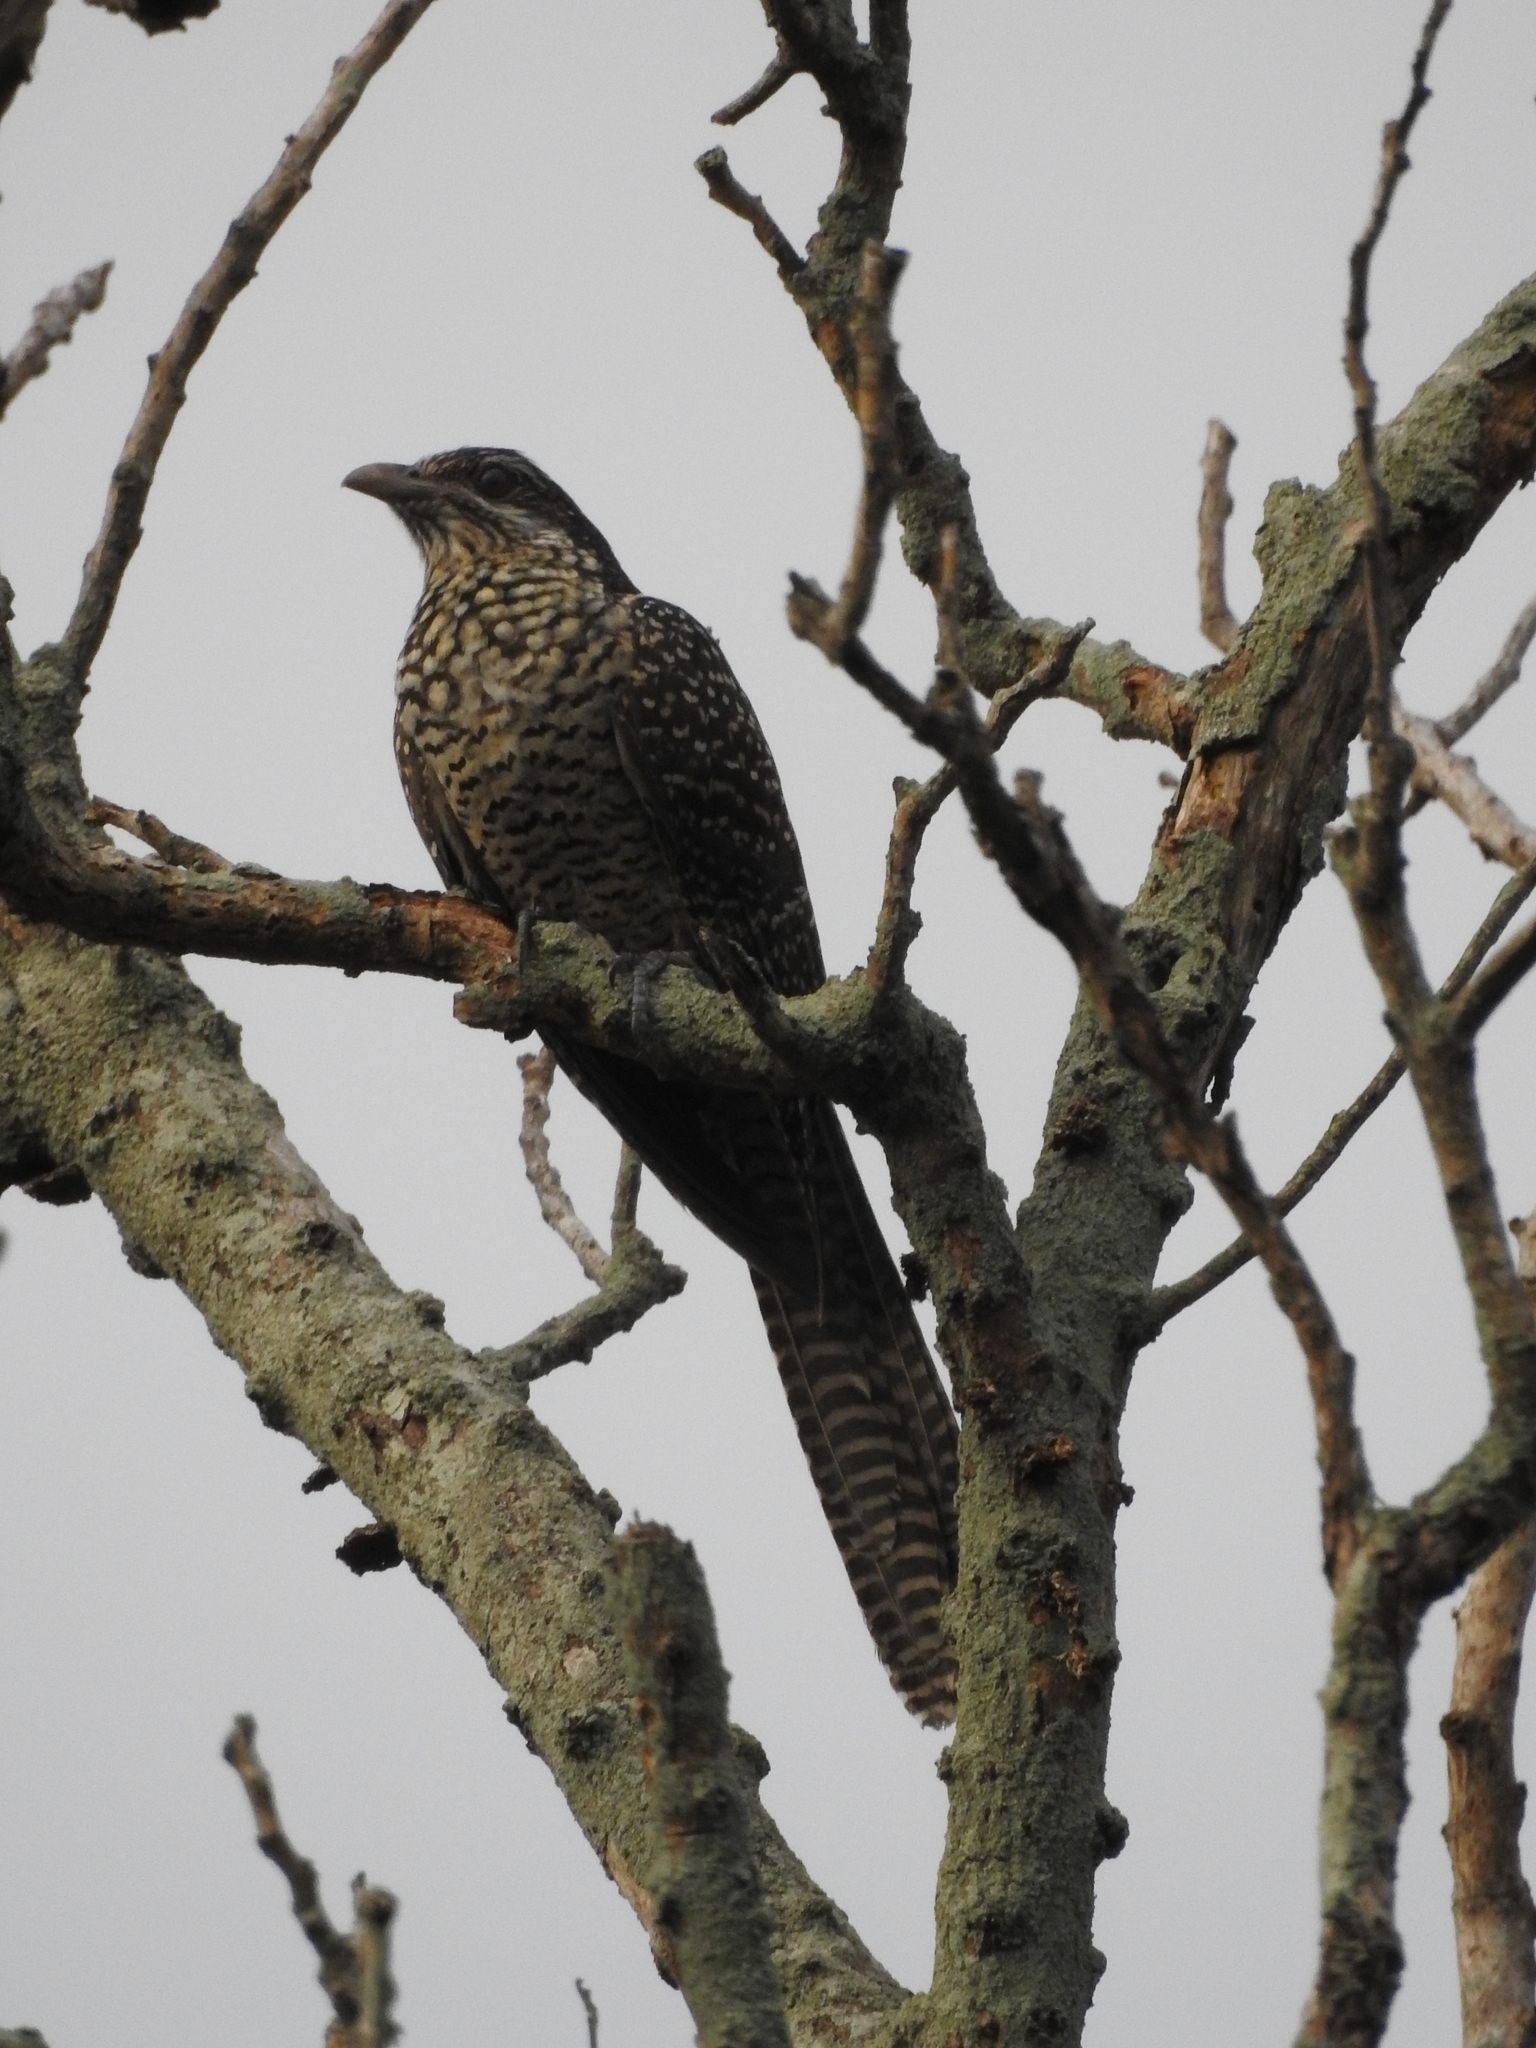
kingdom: Animalia
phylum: Chordata
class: Aves
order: Cuculiformes
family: Cuculidae
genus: Eudynamys
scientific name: Eudynamys scolopaceus
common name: Asian koel
